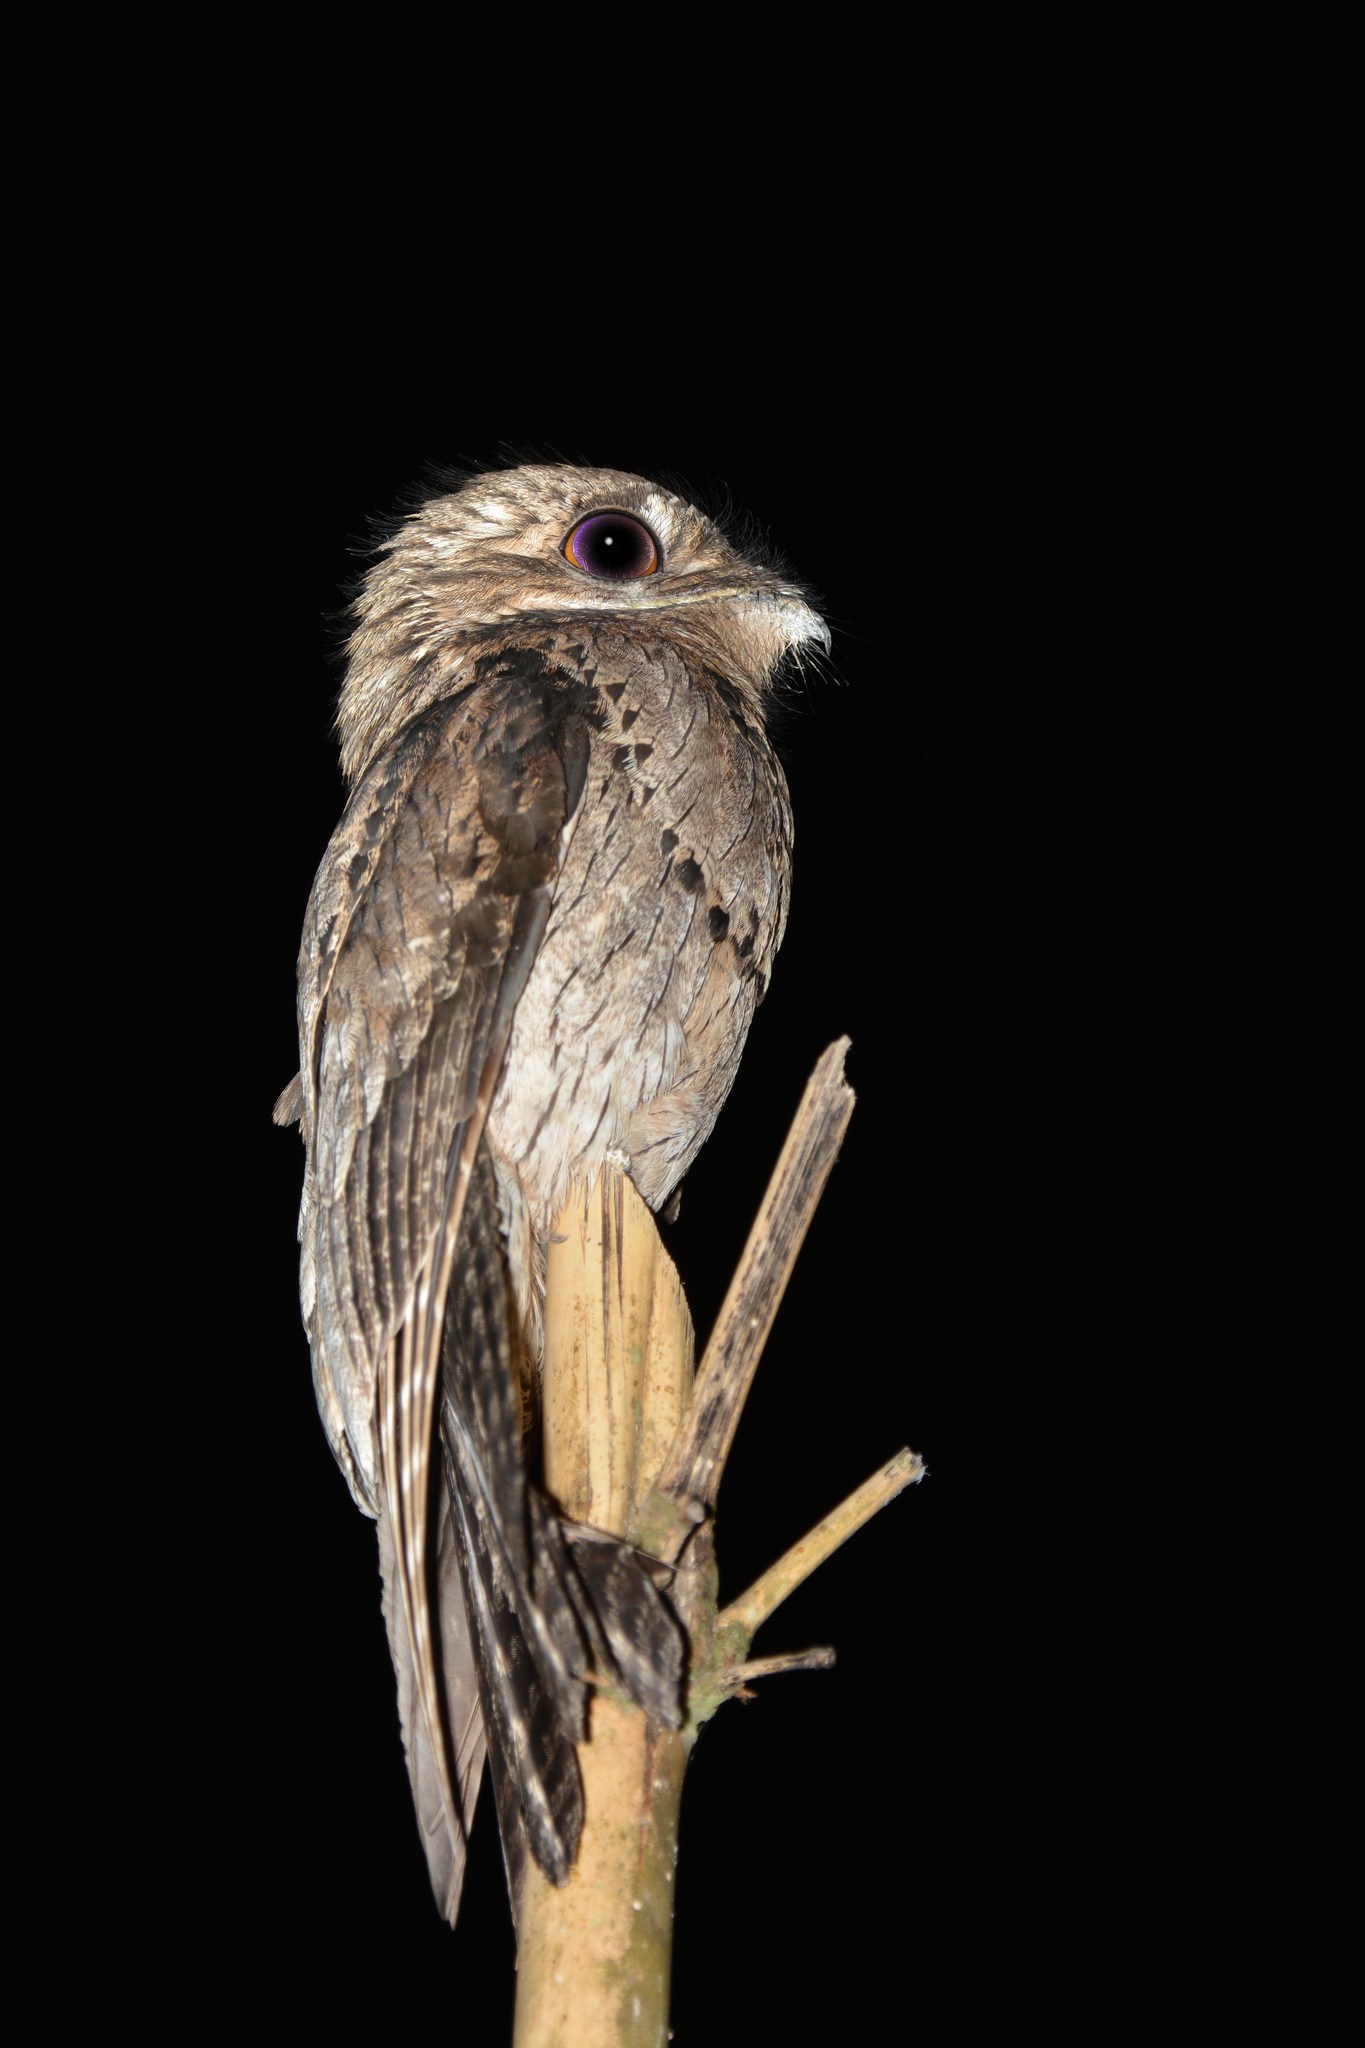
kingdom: Animalia
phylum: Chordata
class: Aves
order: Nyctibiiformes
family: Nyctibiidae
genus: Nyctibius
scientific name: Nyctibius griseus
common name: Common potoo
